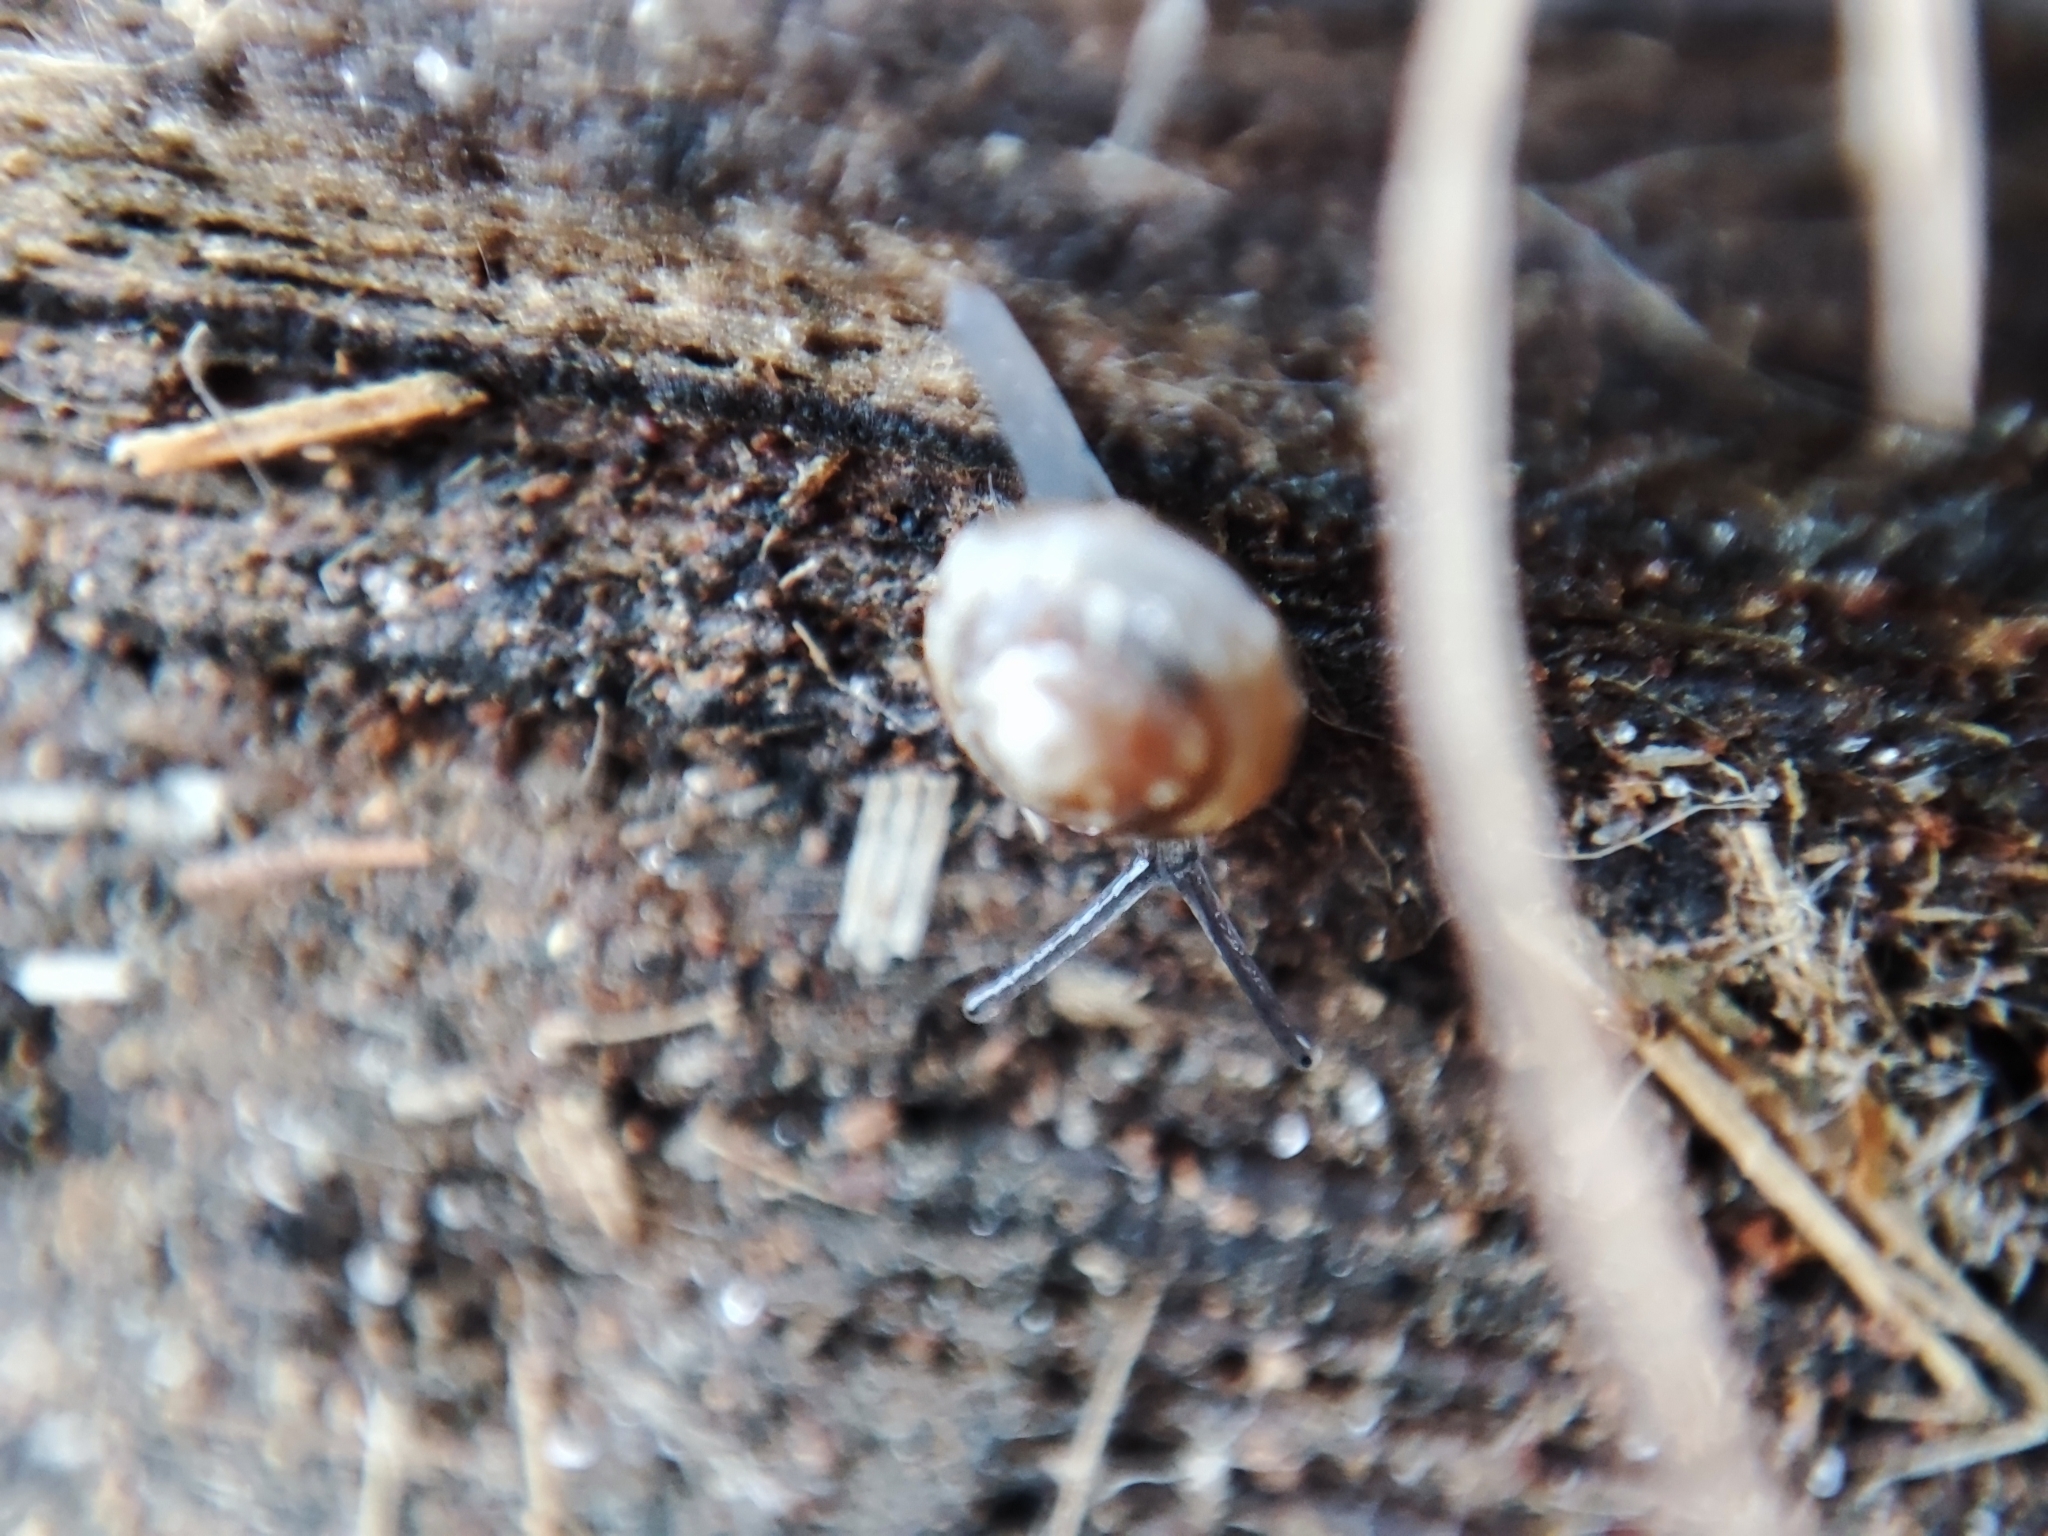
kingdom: Animalia
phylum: Mollusca
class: Gastropoda
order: Stylommatophora
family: Euconulidae
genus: Euconulus
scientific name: Euconulus fulvus
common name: Tawny glass snail
